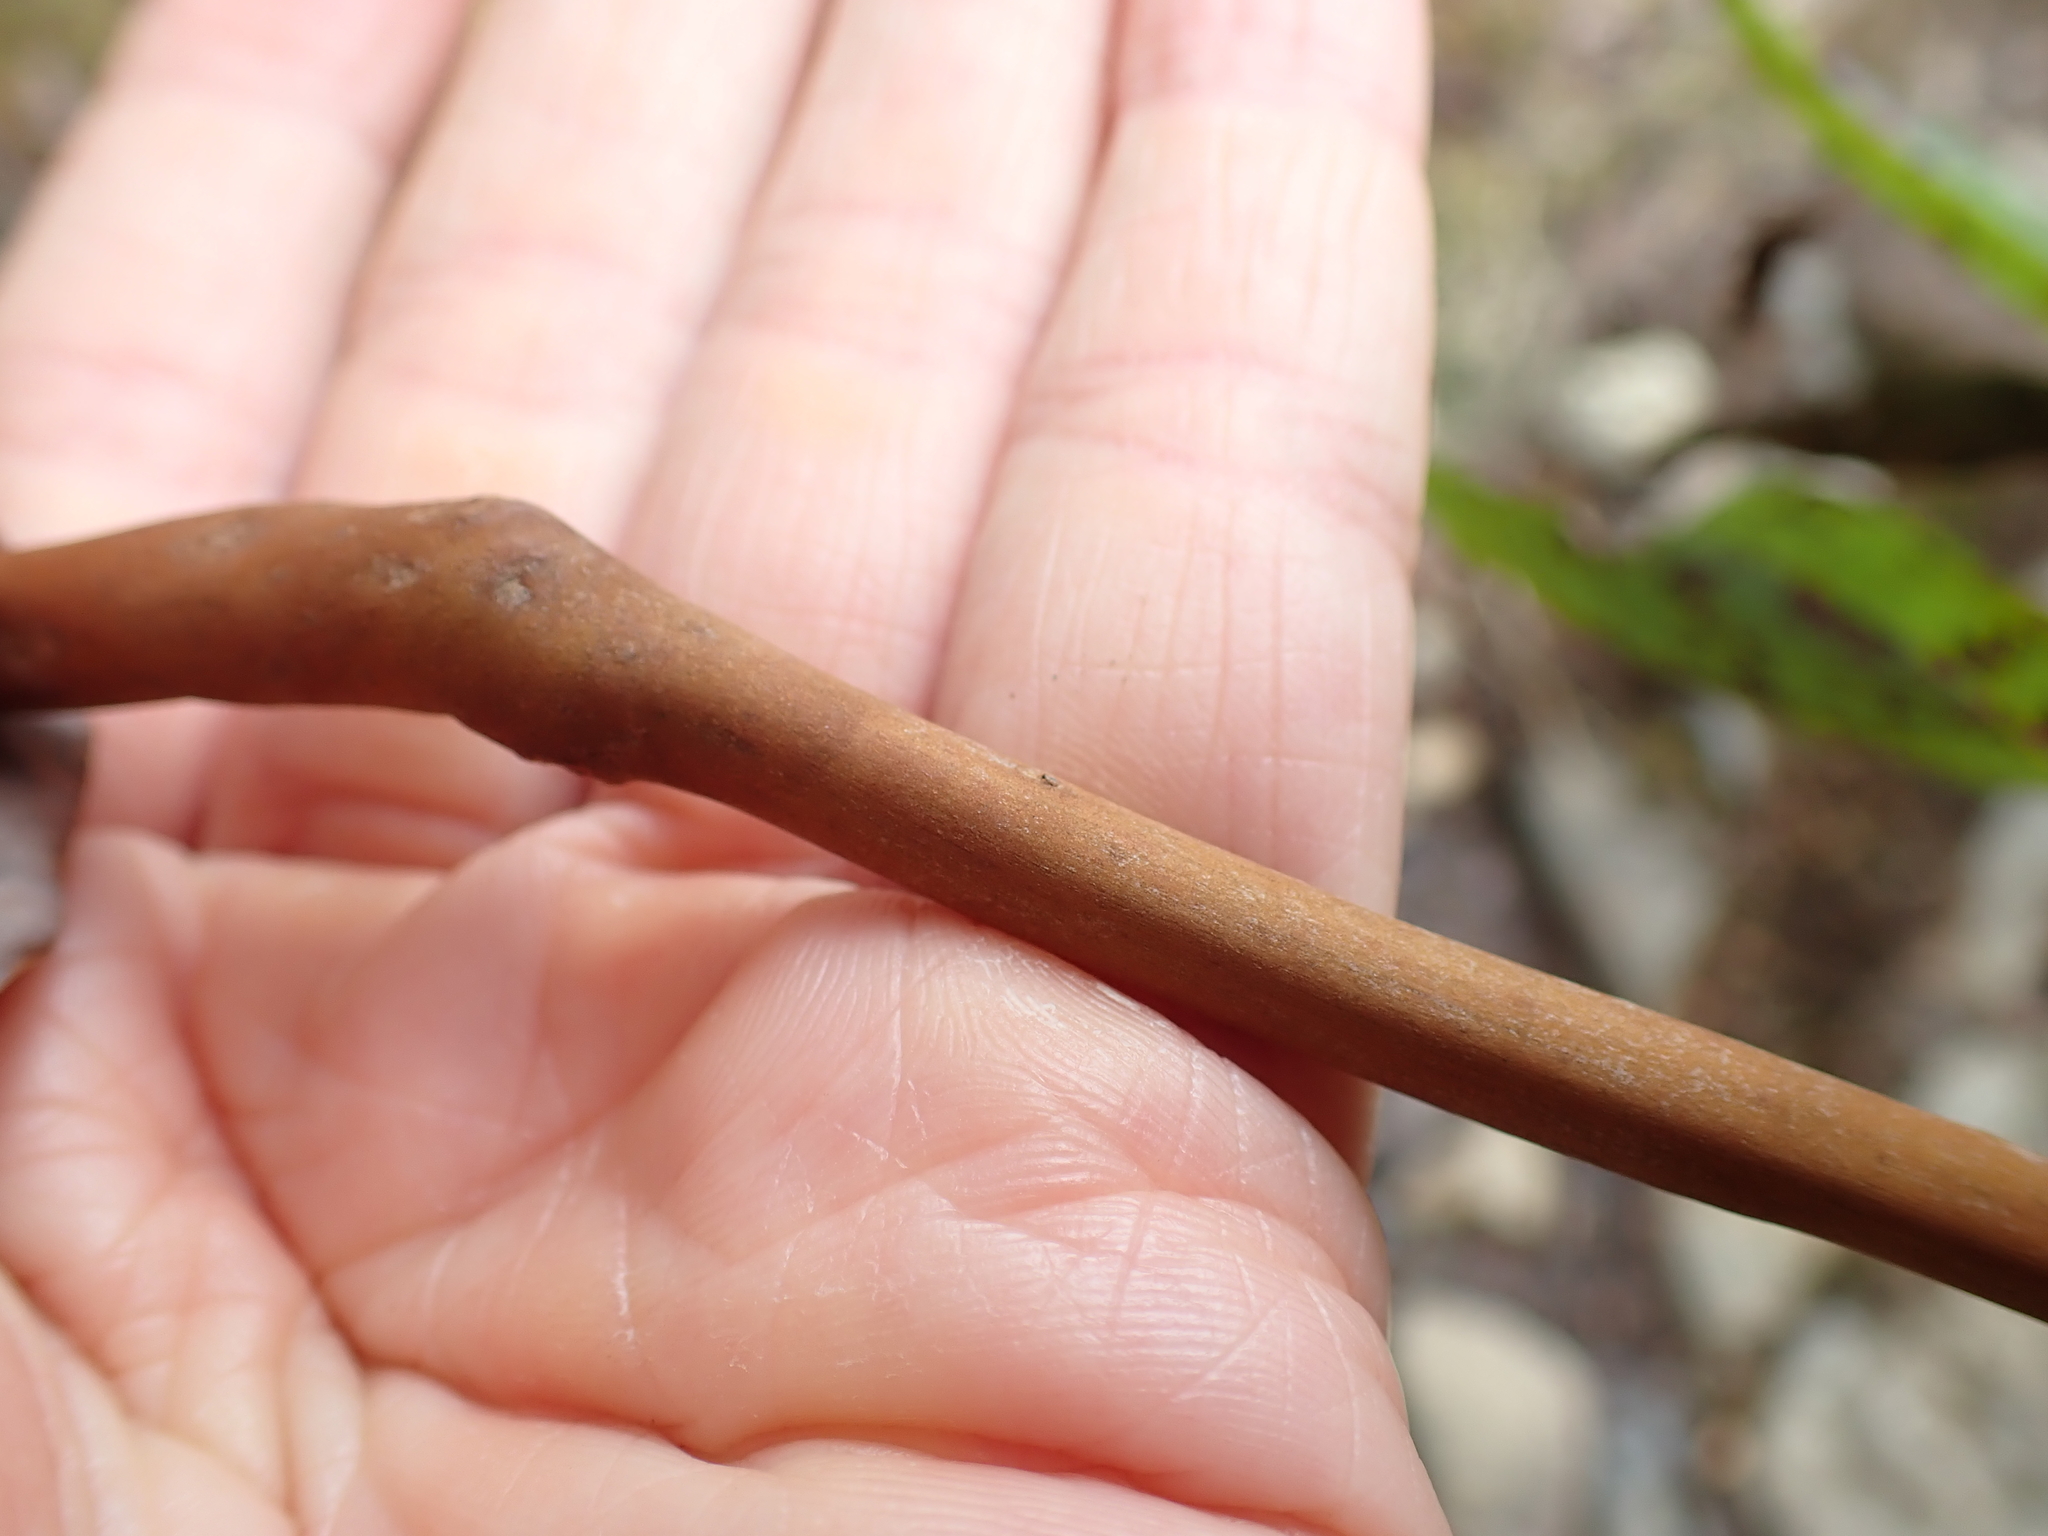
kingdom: Plantae
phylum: Tracheophyta
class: Magnoliopsida
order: Ericales
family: Ericaceae
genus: Arbutus
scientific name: Arbutus menziesii
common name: Pacific madrone
